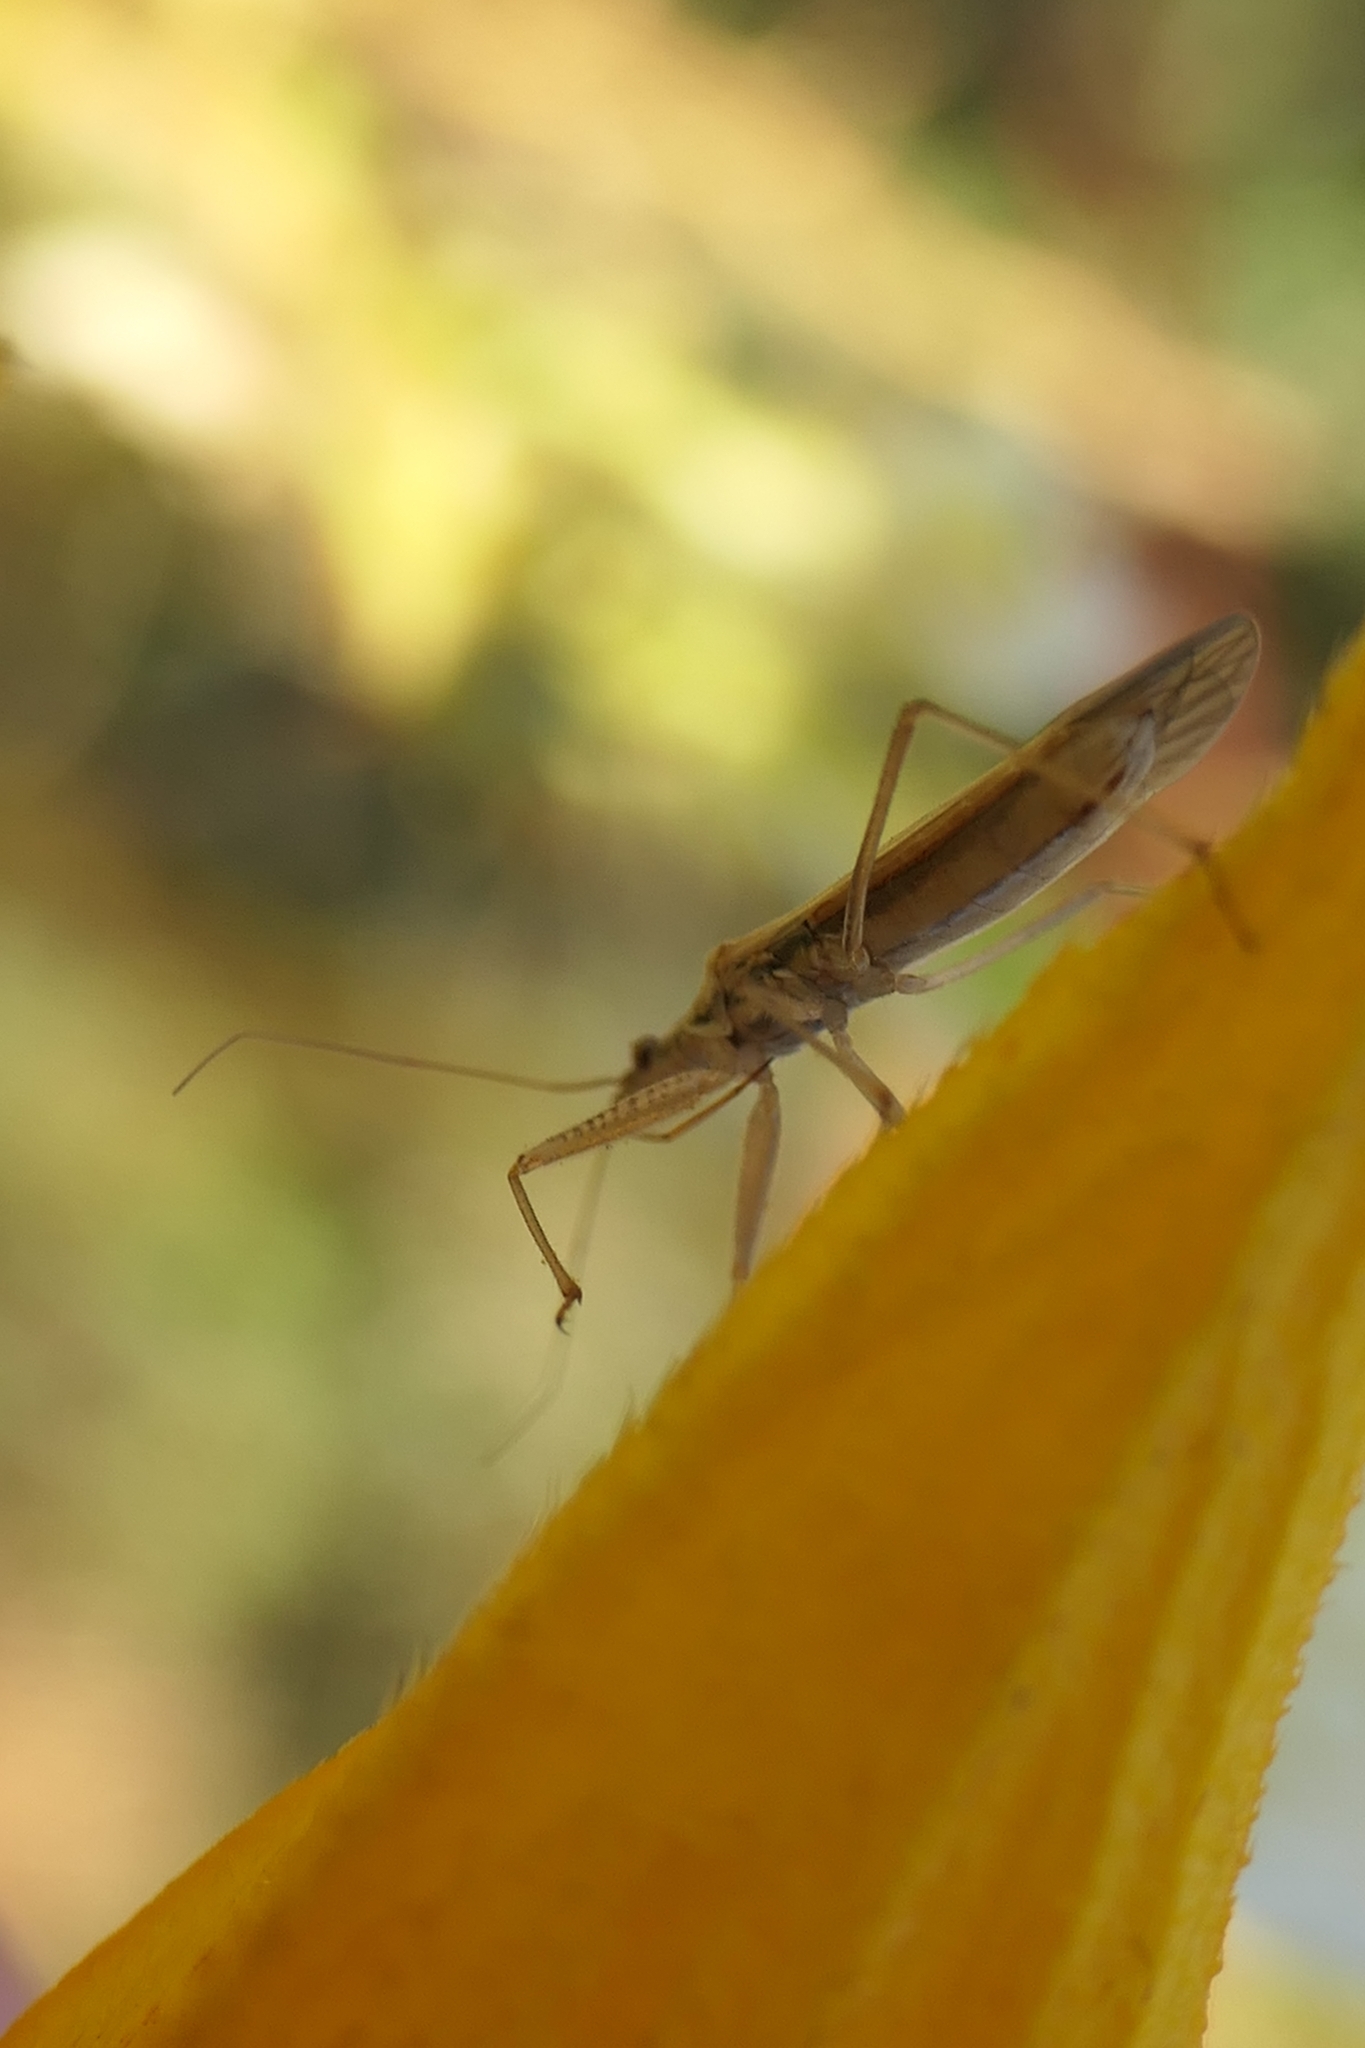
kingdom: Animalia
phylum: Arthropoda
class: Insecta
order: Hemiptera
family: Nabidae
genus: Nabis
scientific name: Nabis kinbergii
